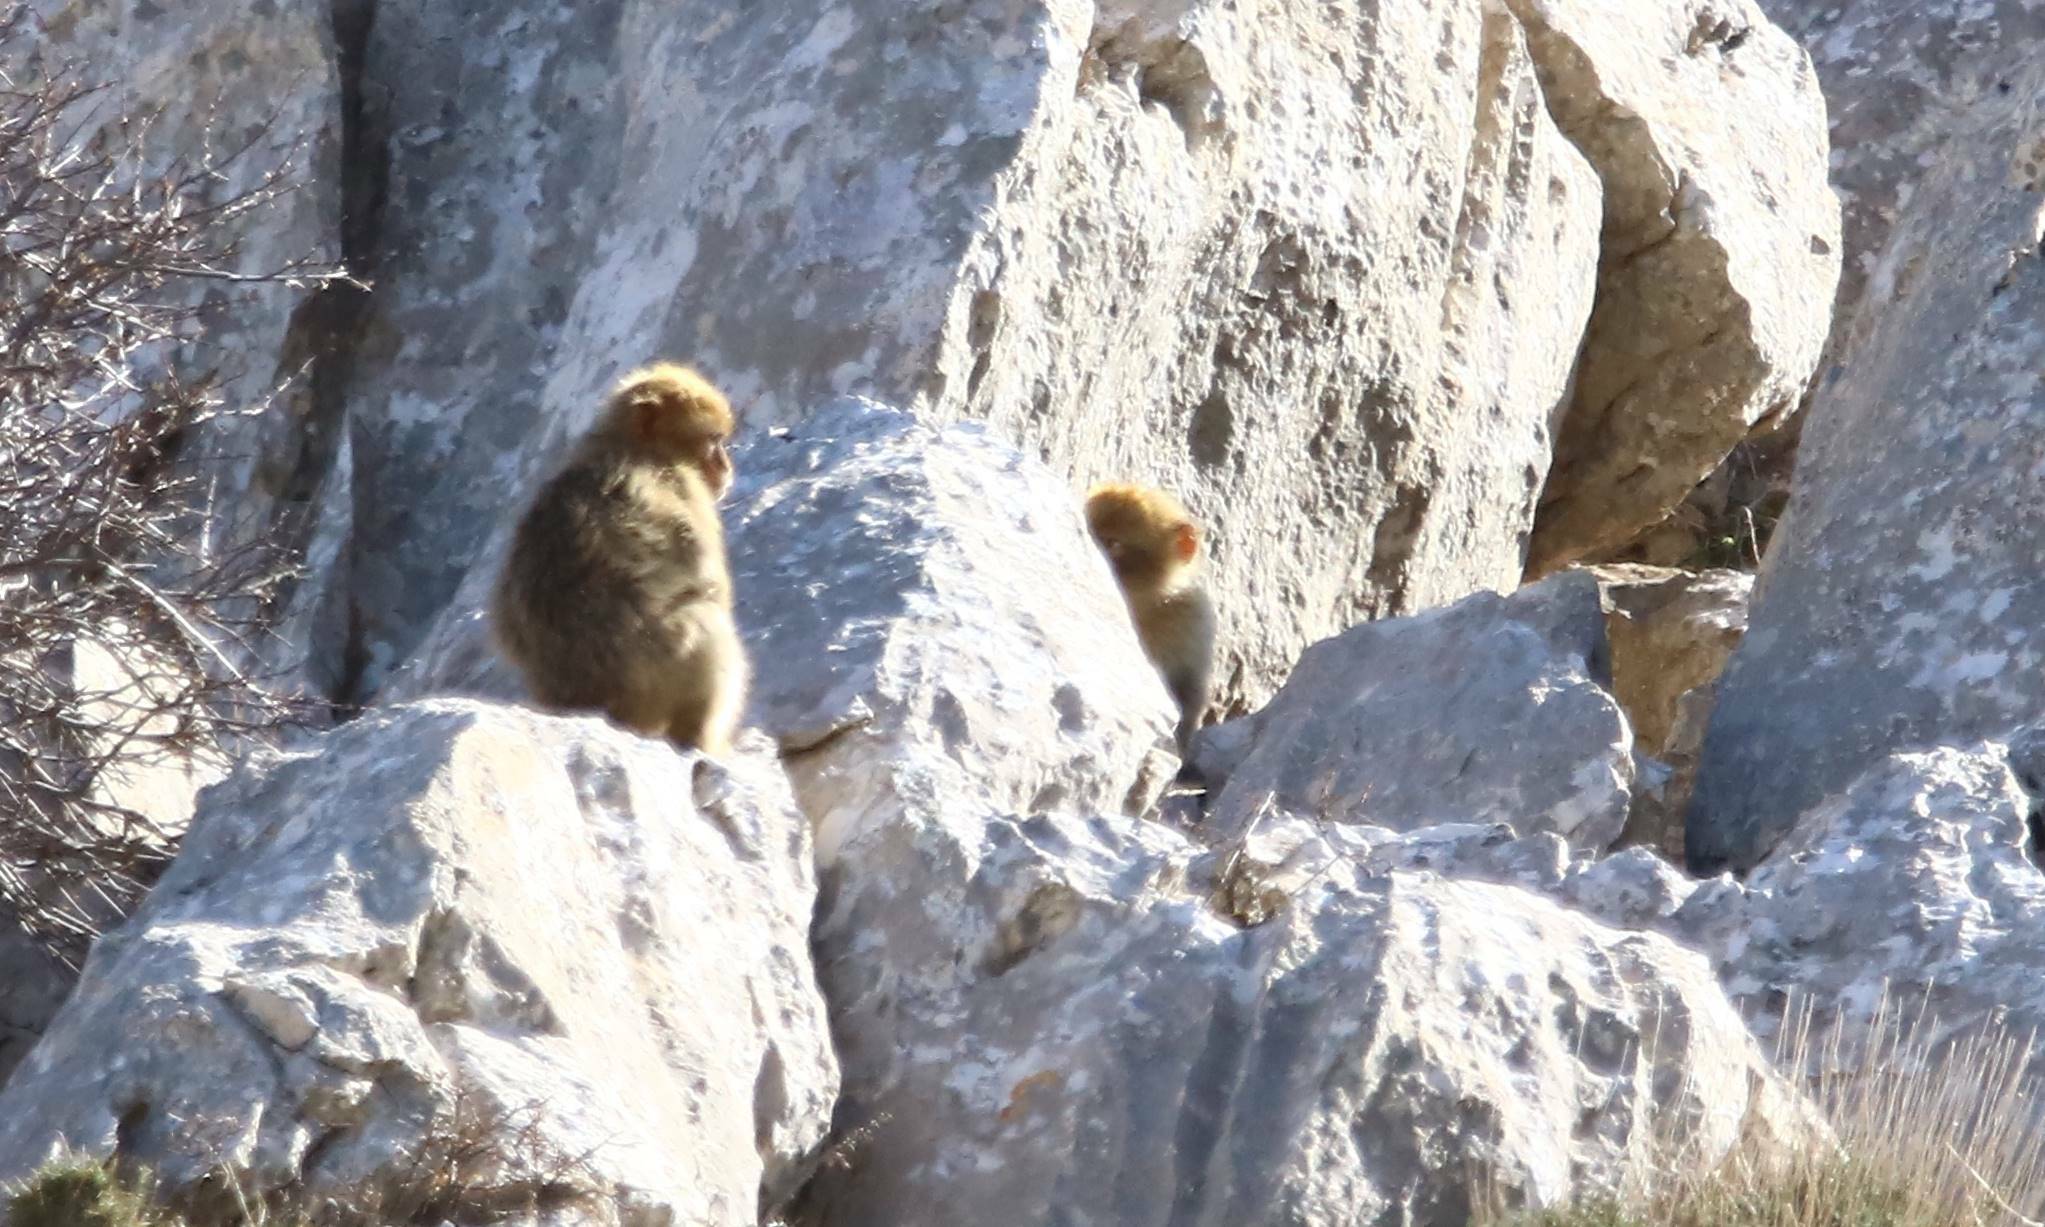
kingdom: Animalia
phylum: Chordata
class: Mammalia
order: Primates
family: Cercopithecidae
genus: Macaca
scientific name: Macaca sylvanus
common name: Barbary macaque
